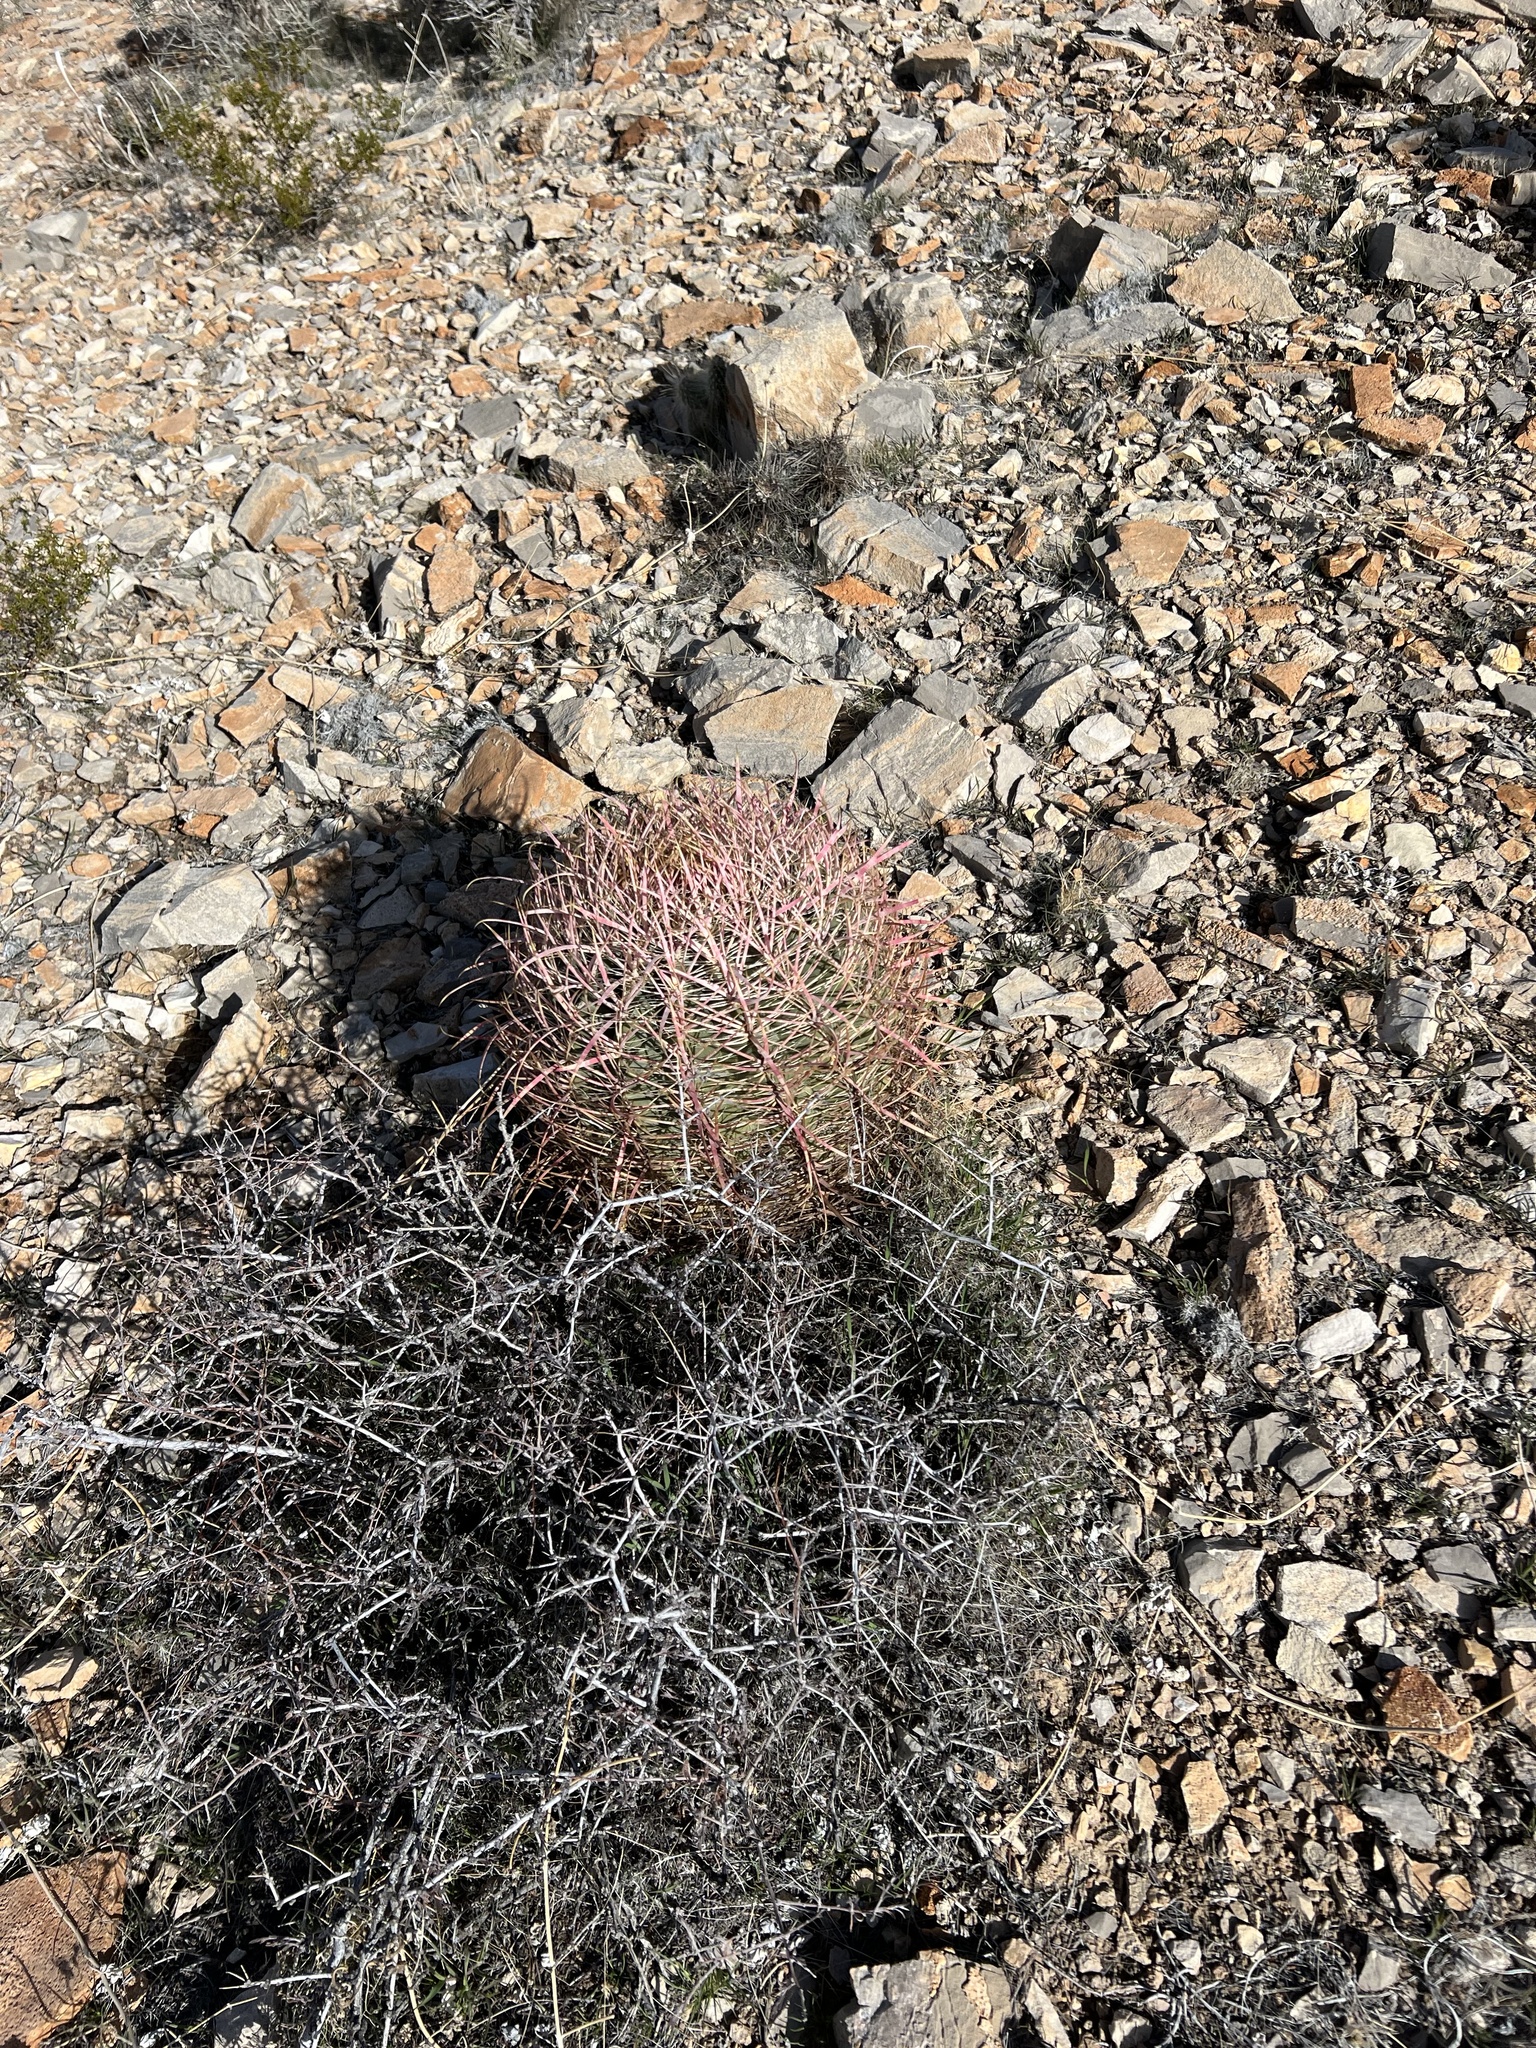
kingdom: Plantae
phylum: Tracheophyta
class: Magnoliopsida
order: Caryophyllales
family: Cactaceae
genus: Ferocactus
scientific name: Ferocactus cylindraceus
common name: California barrel cactus
